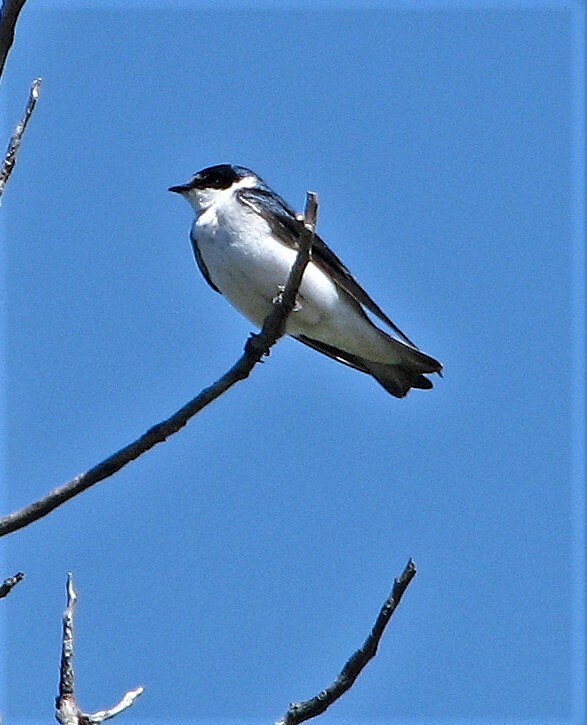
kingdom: Animalia
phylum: Chordata
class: Aves
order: Passeriformes
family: Hirundinidae
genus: Tachycineta
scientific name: Tachycineta leucorrhoa
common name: White-rumped swallow
